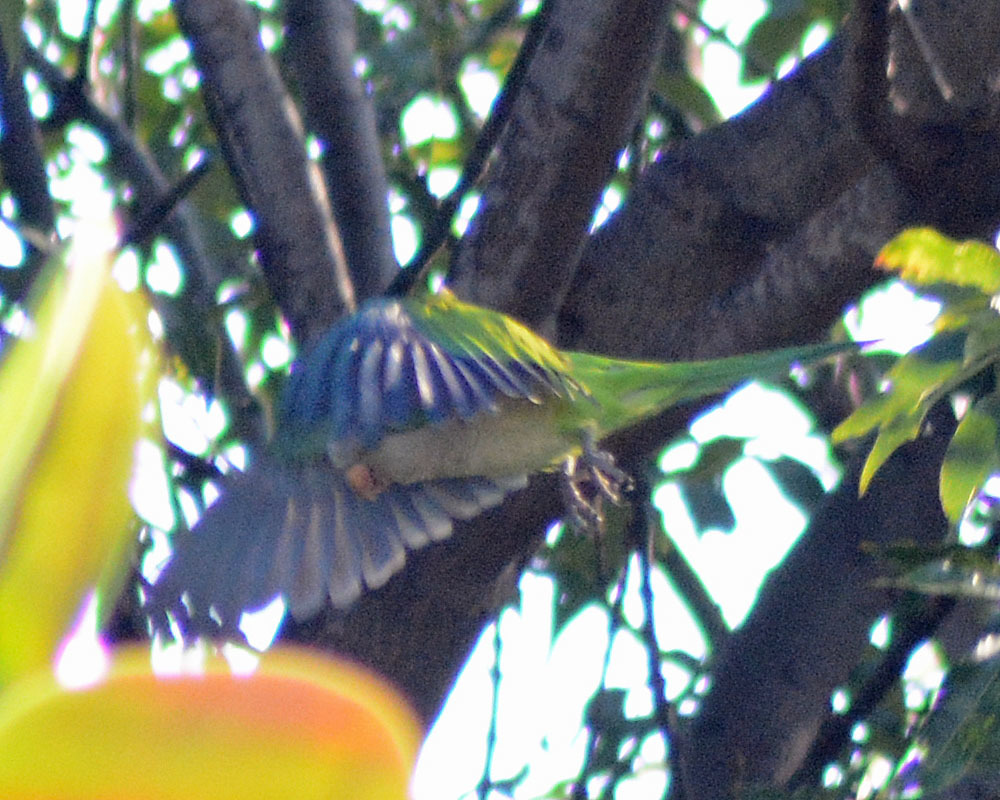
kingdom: Animalia
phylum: Chordata
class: Aves
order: Psittaciformes
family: Psittacidae
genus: Myiopsitta
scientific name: Myiopsitta monachus
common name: Monk parakeet
